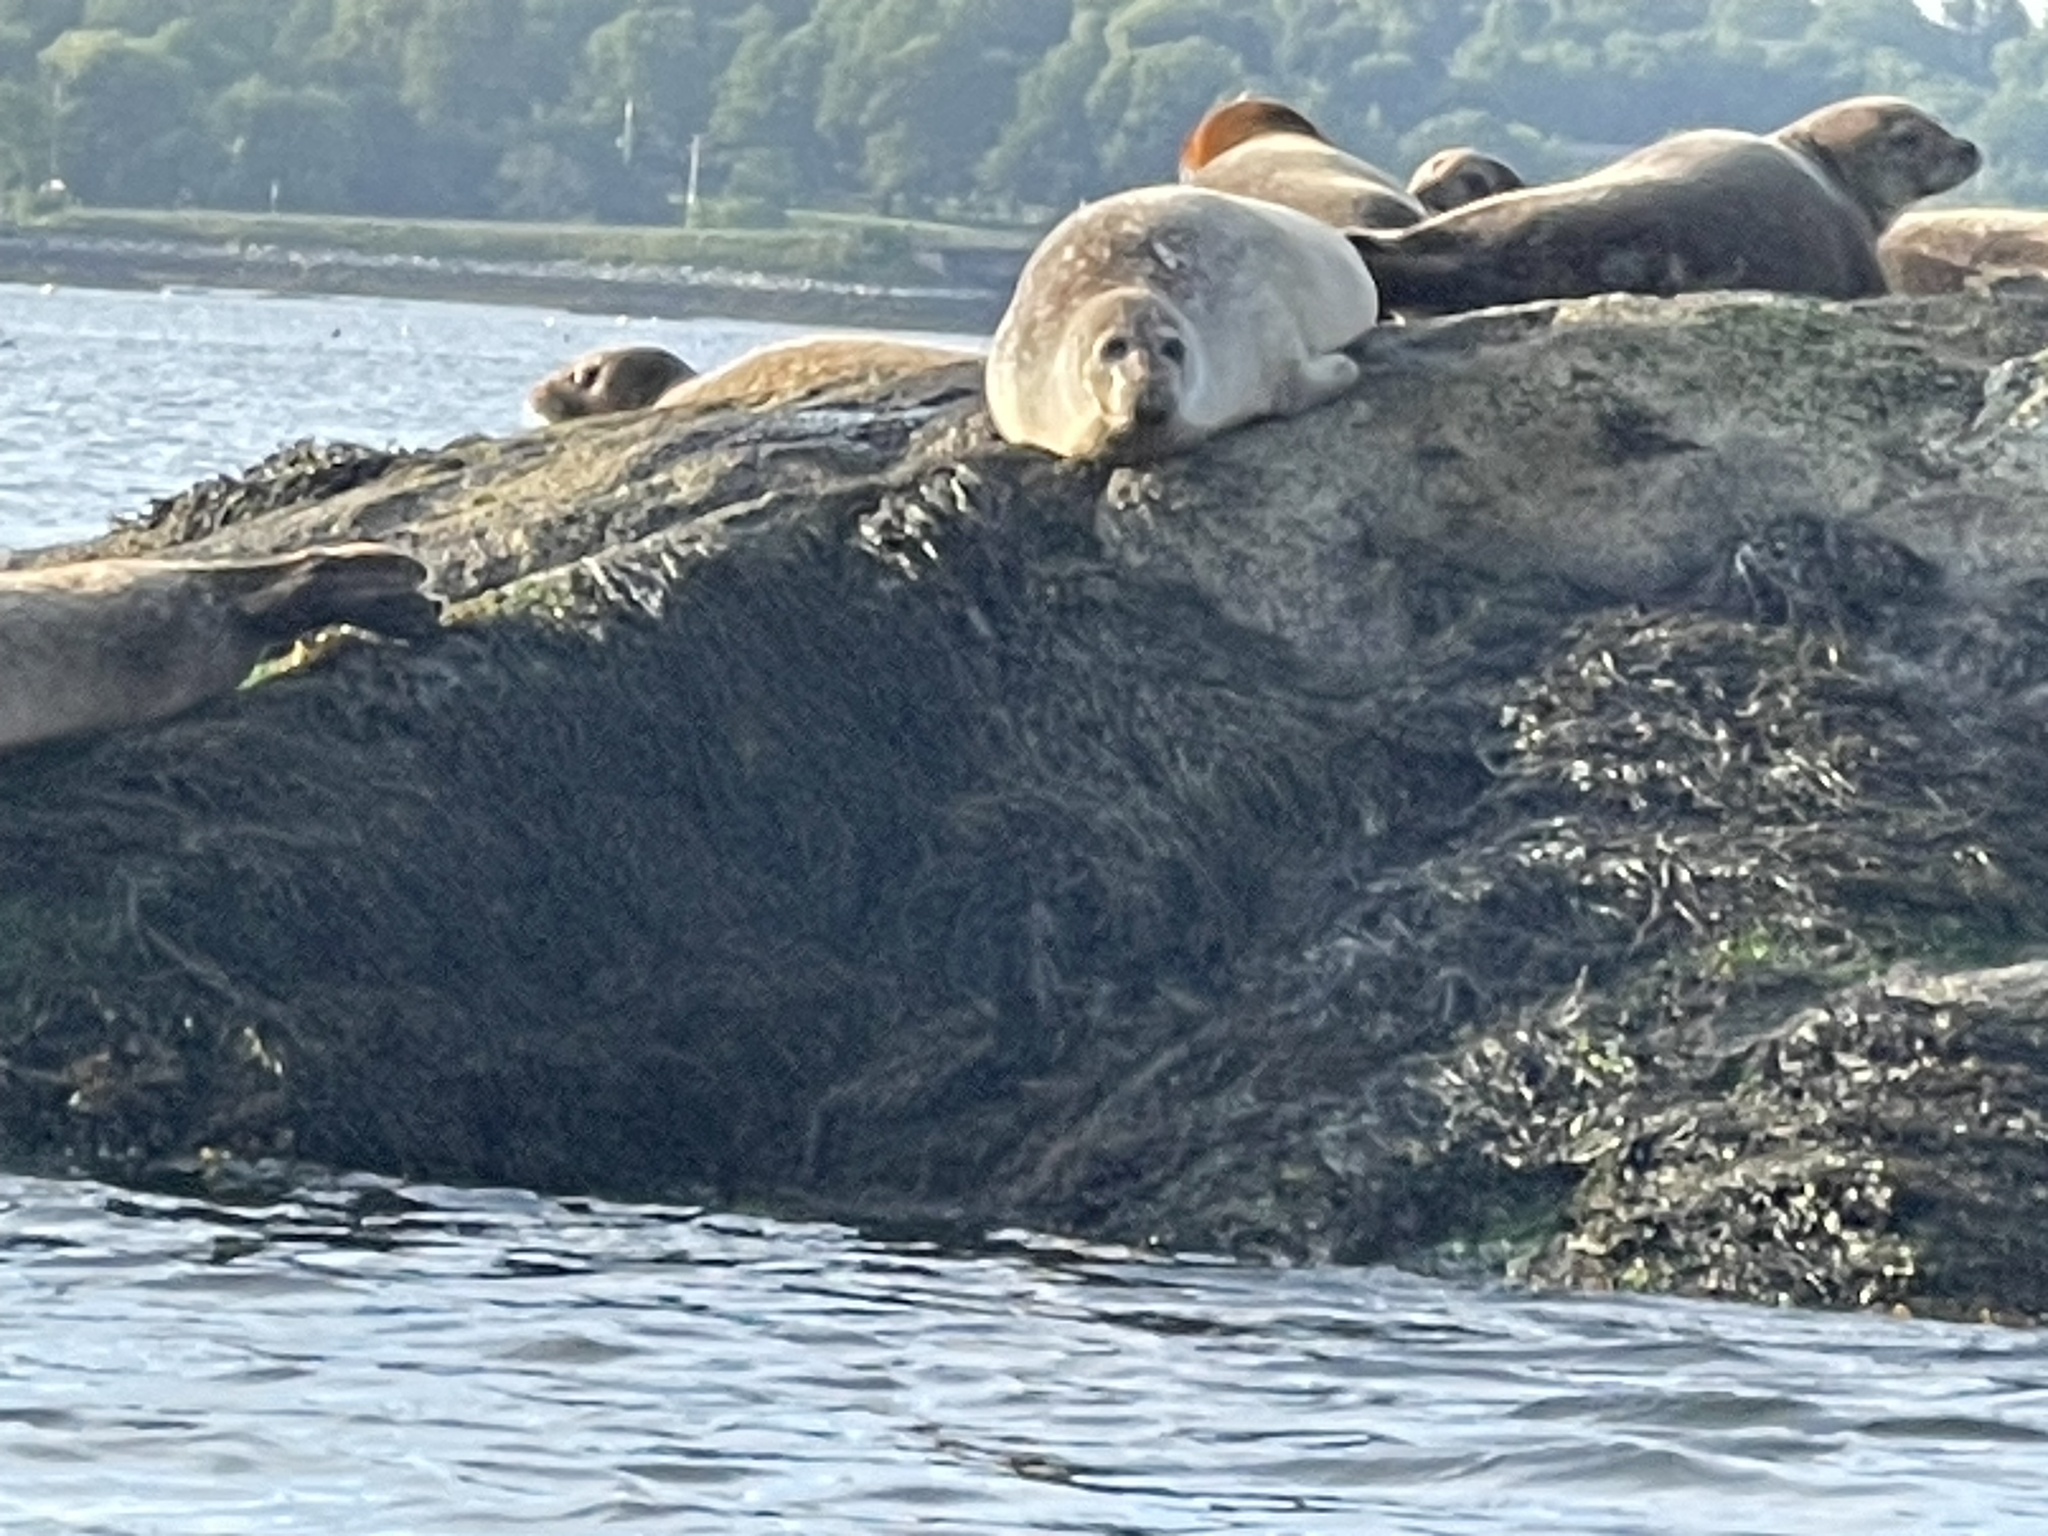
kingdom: Animalia
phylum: Chordata
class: Mammalia
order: Carnivora
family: Phocidae
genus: Halichoerus
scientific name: Halichoerus grypus
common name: Grey seal
